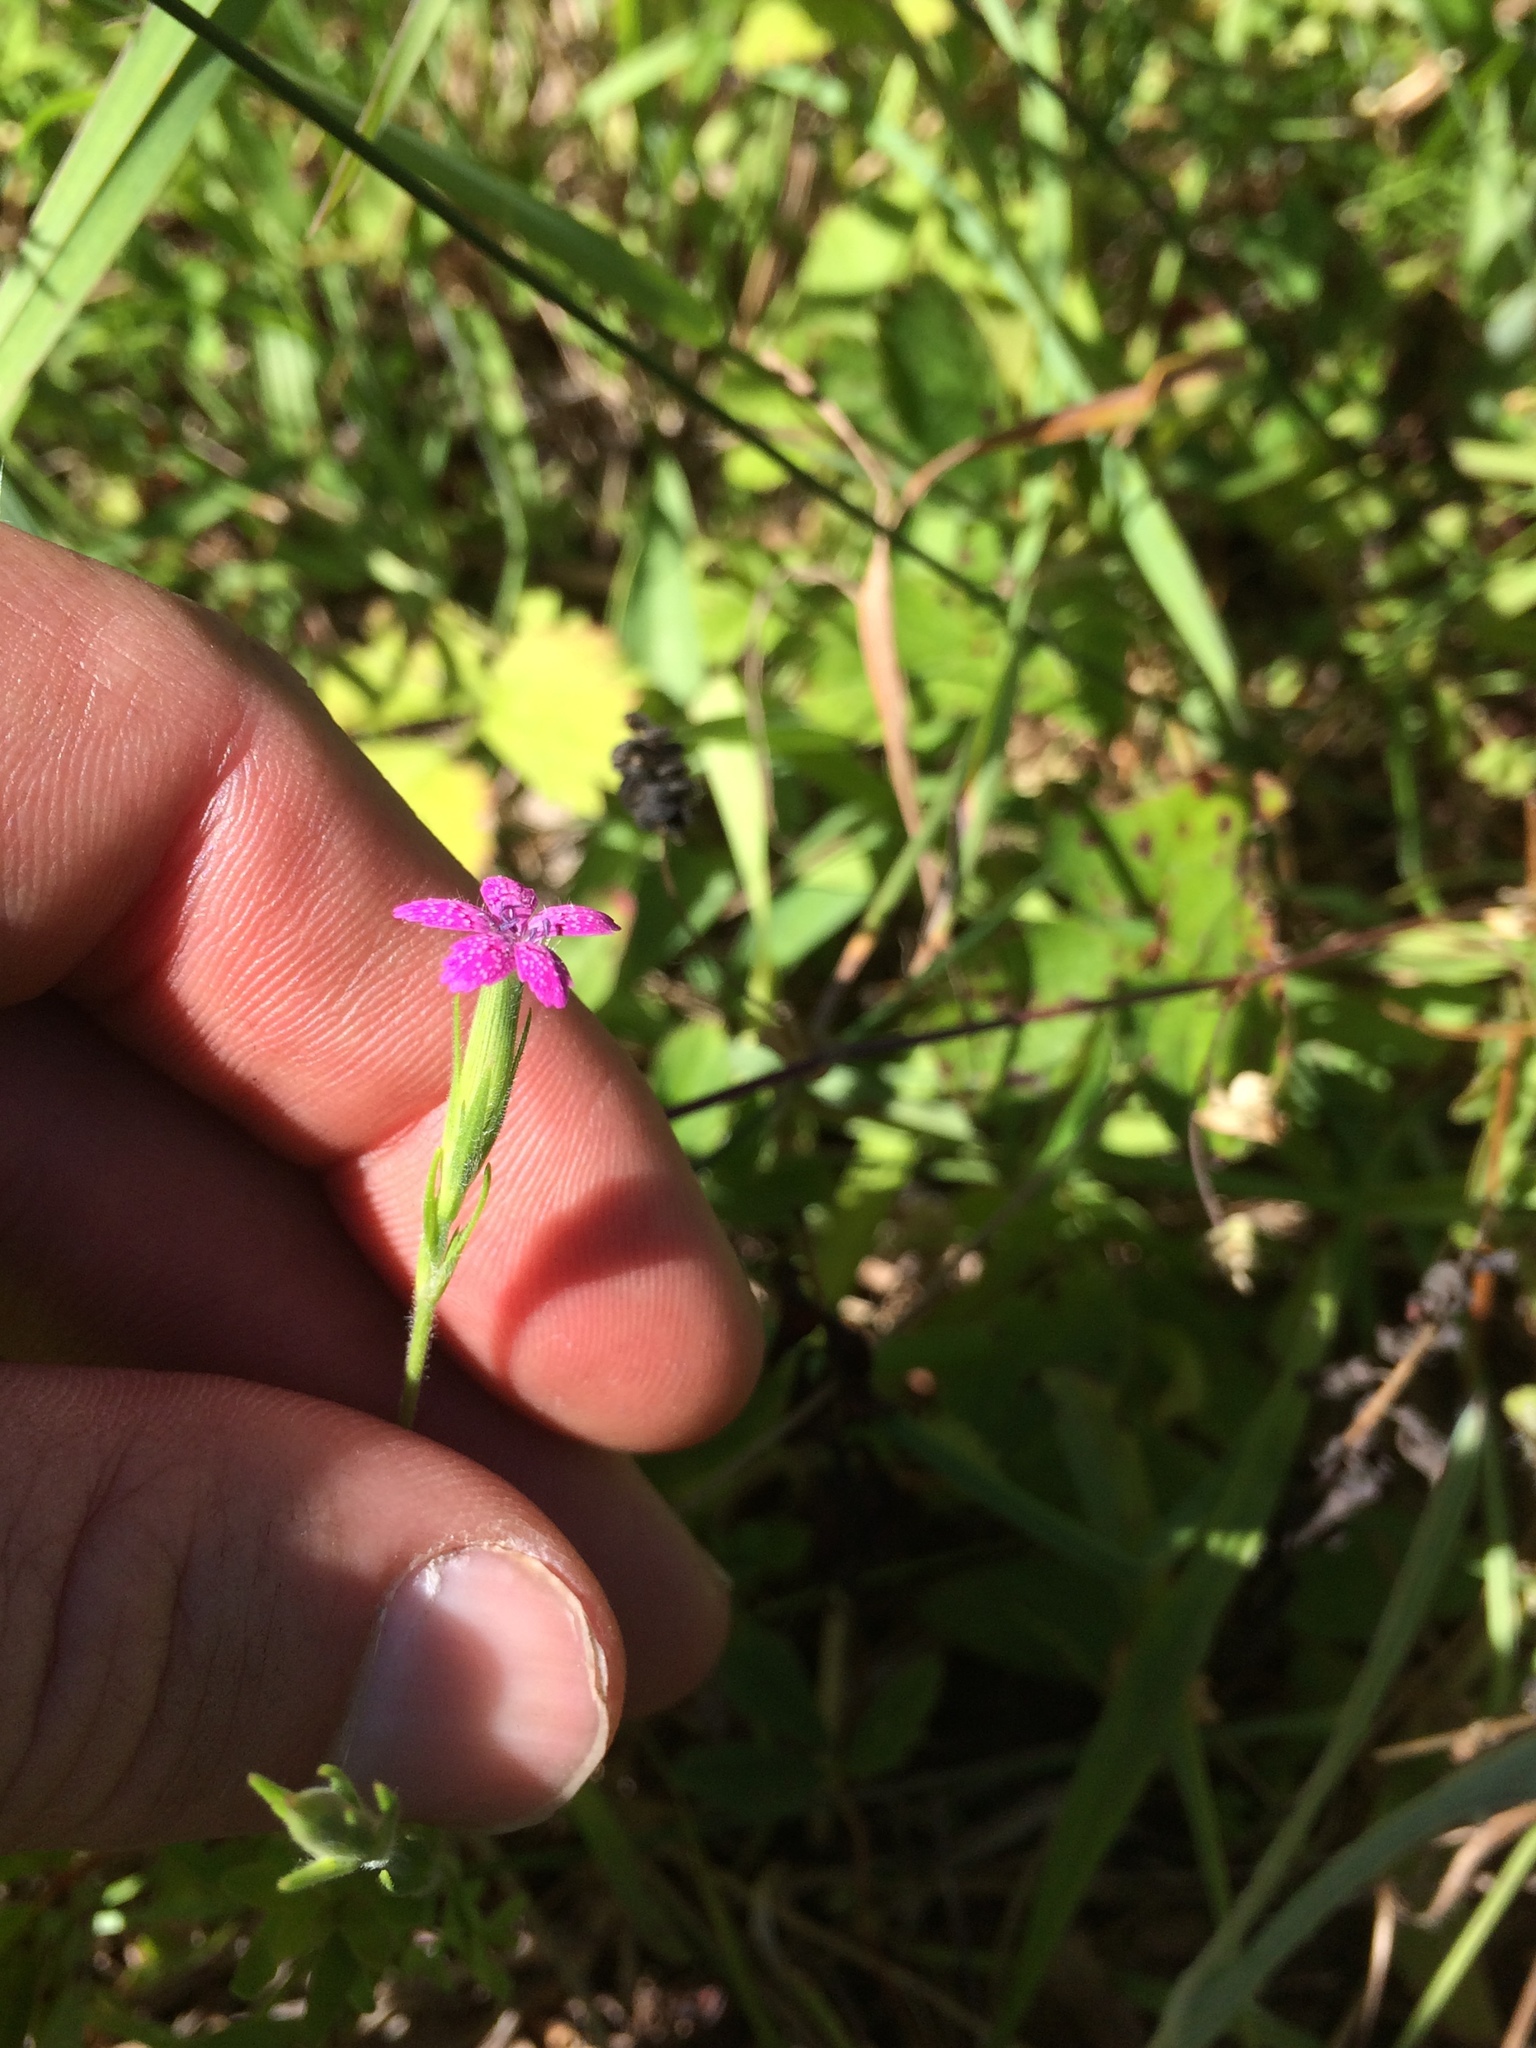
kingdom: Plantae
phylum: Tracheophyta
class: Magnoliopsida
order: Caryophyllales
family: Caryophyllaceae
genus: Dianthus
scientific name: Dianthus armeria
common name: Deptford pink
